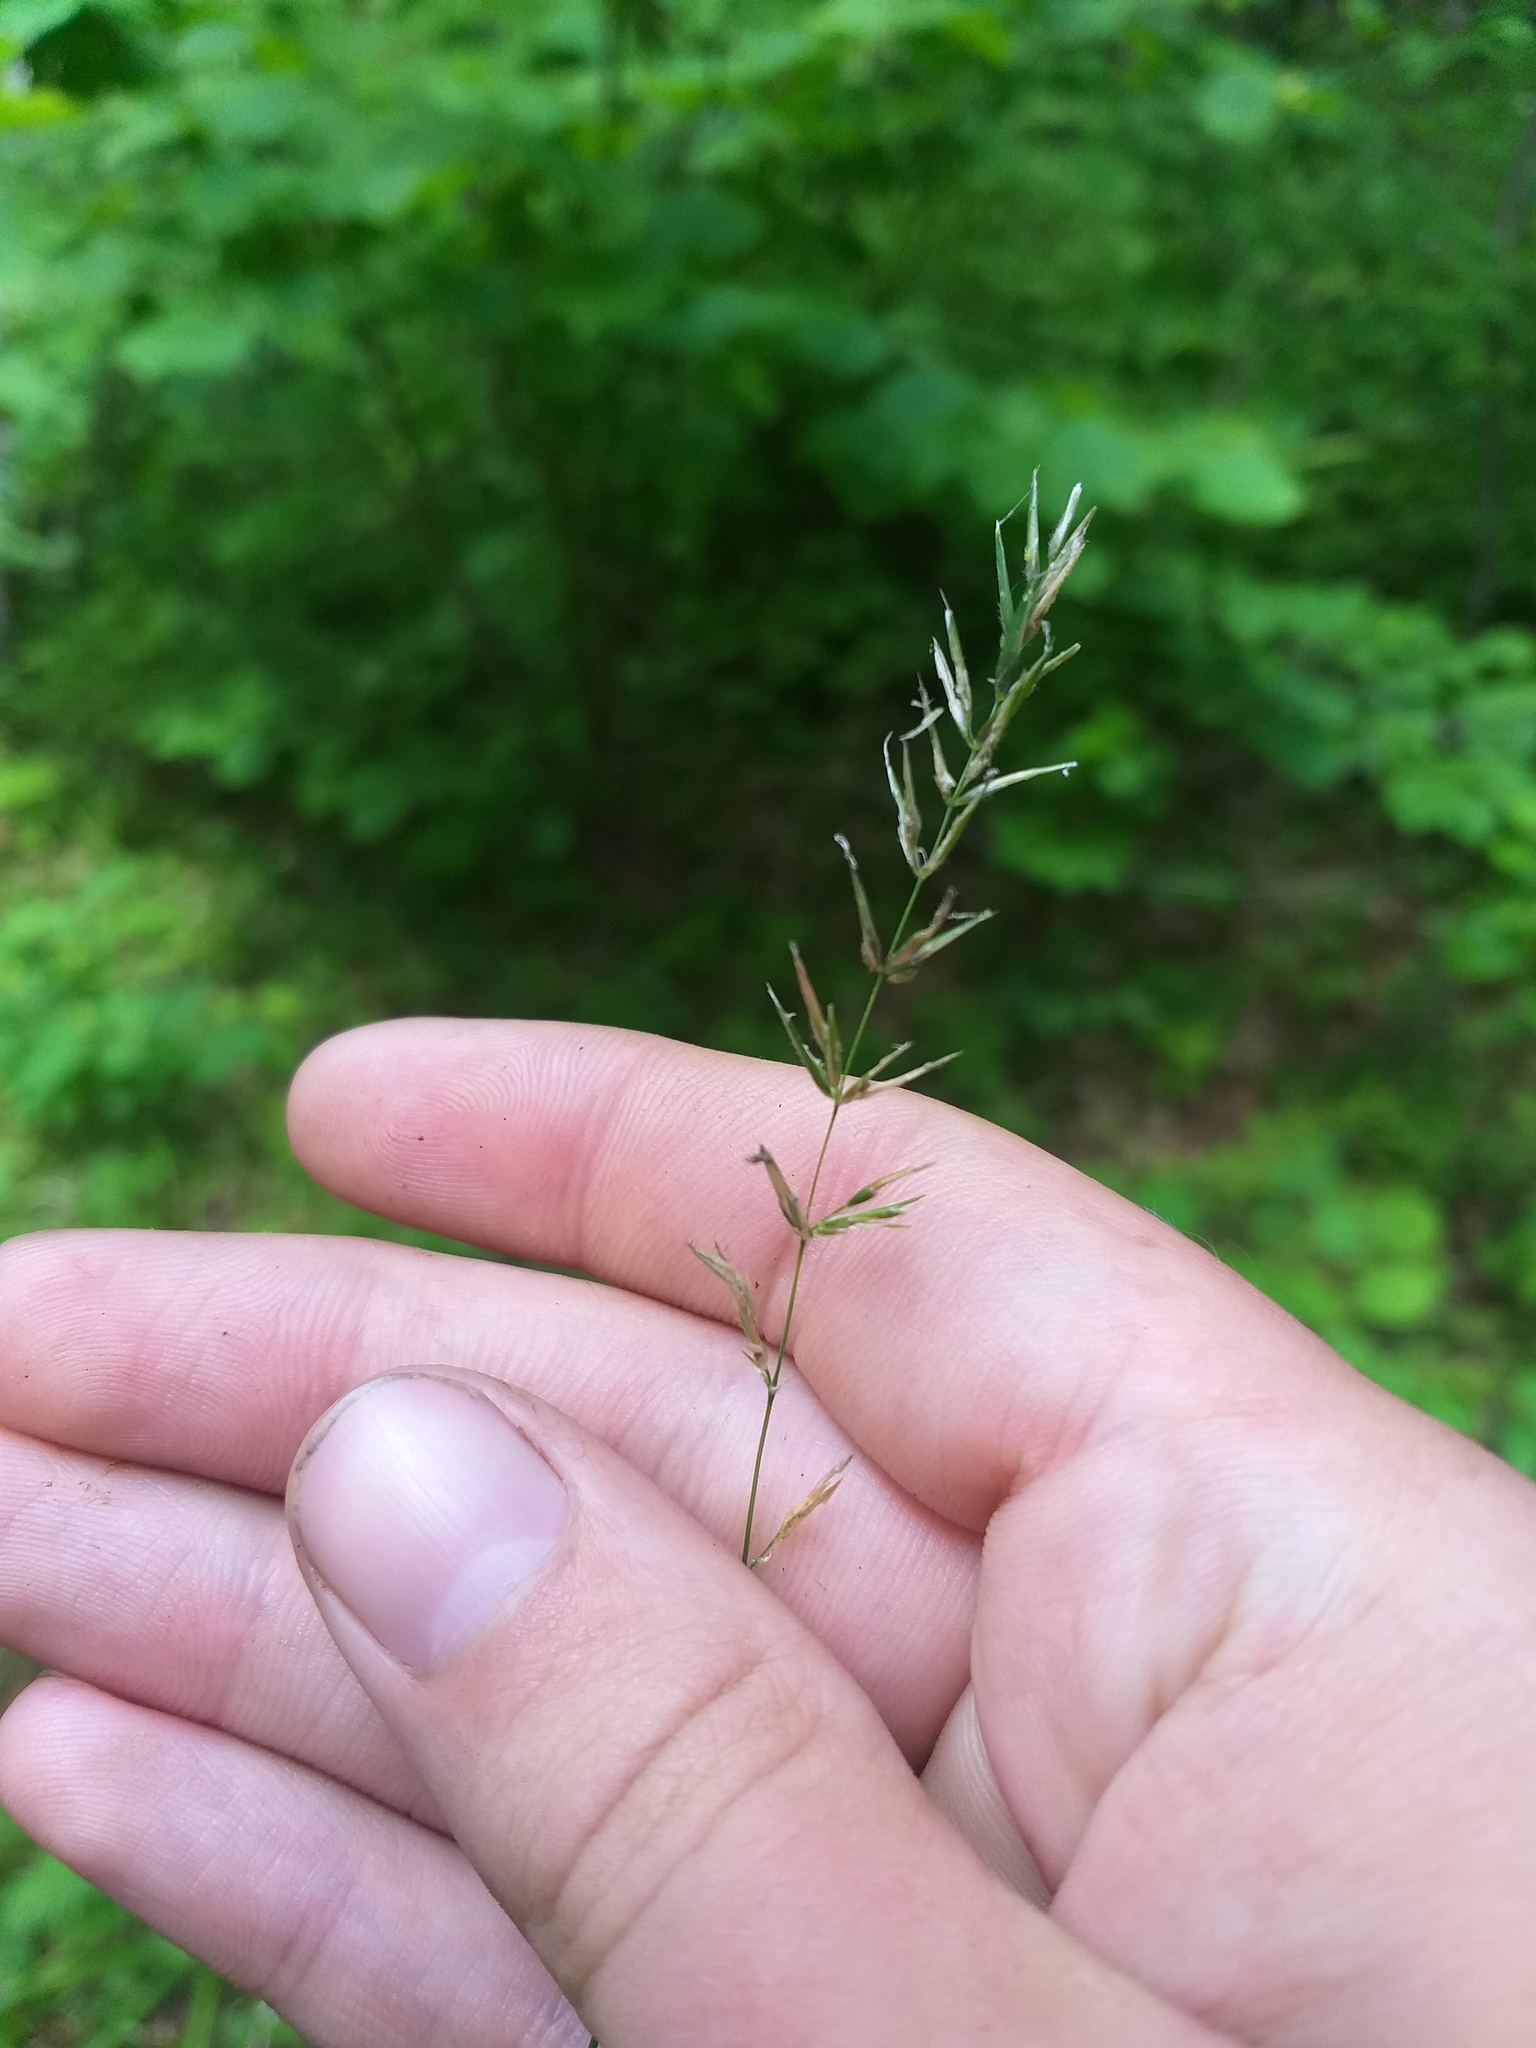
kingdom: Plantae
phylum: Tracheophyta
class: Liliopsida
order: Poales
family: Poaceae
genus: Anthoxanthum
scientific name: Anthoxanthum odoratum
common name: Sweet vernalgrass
